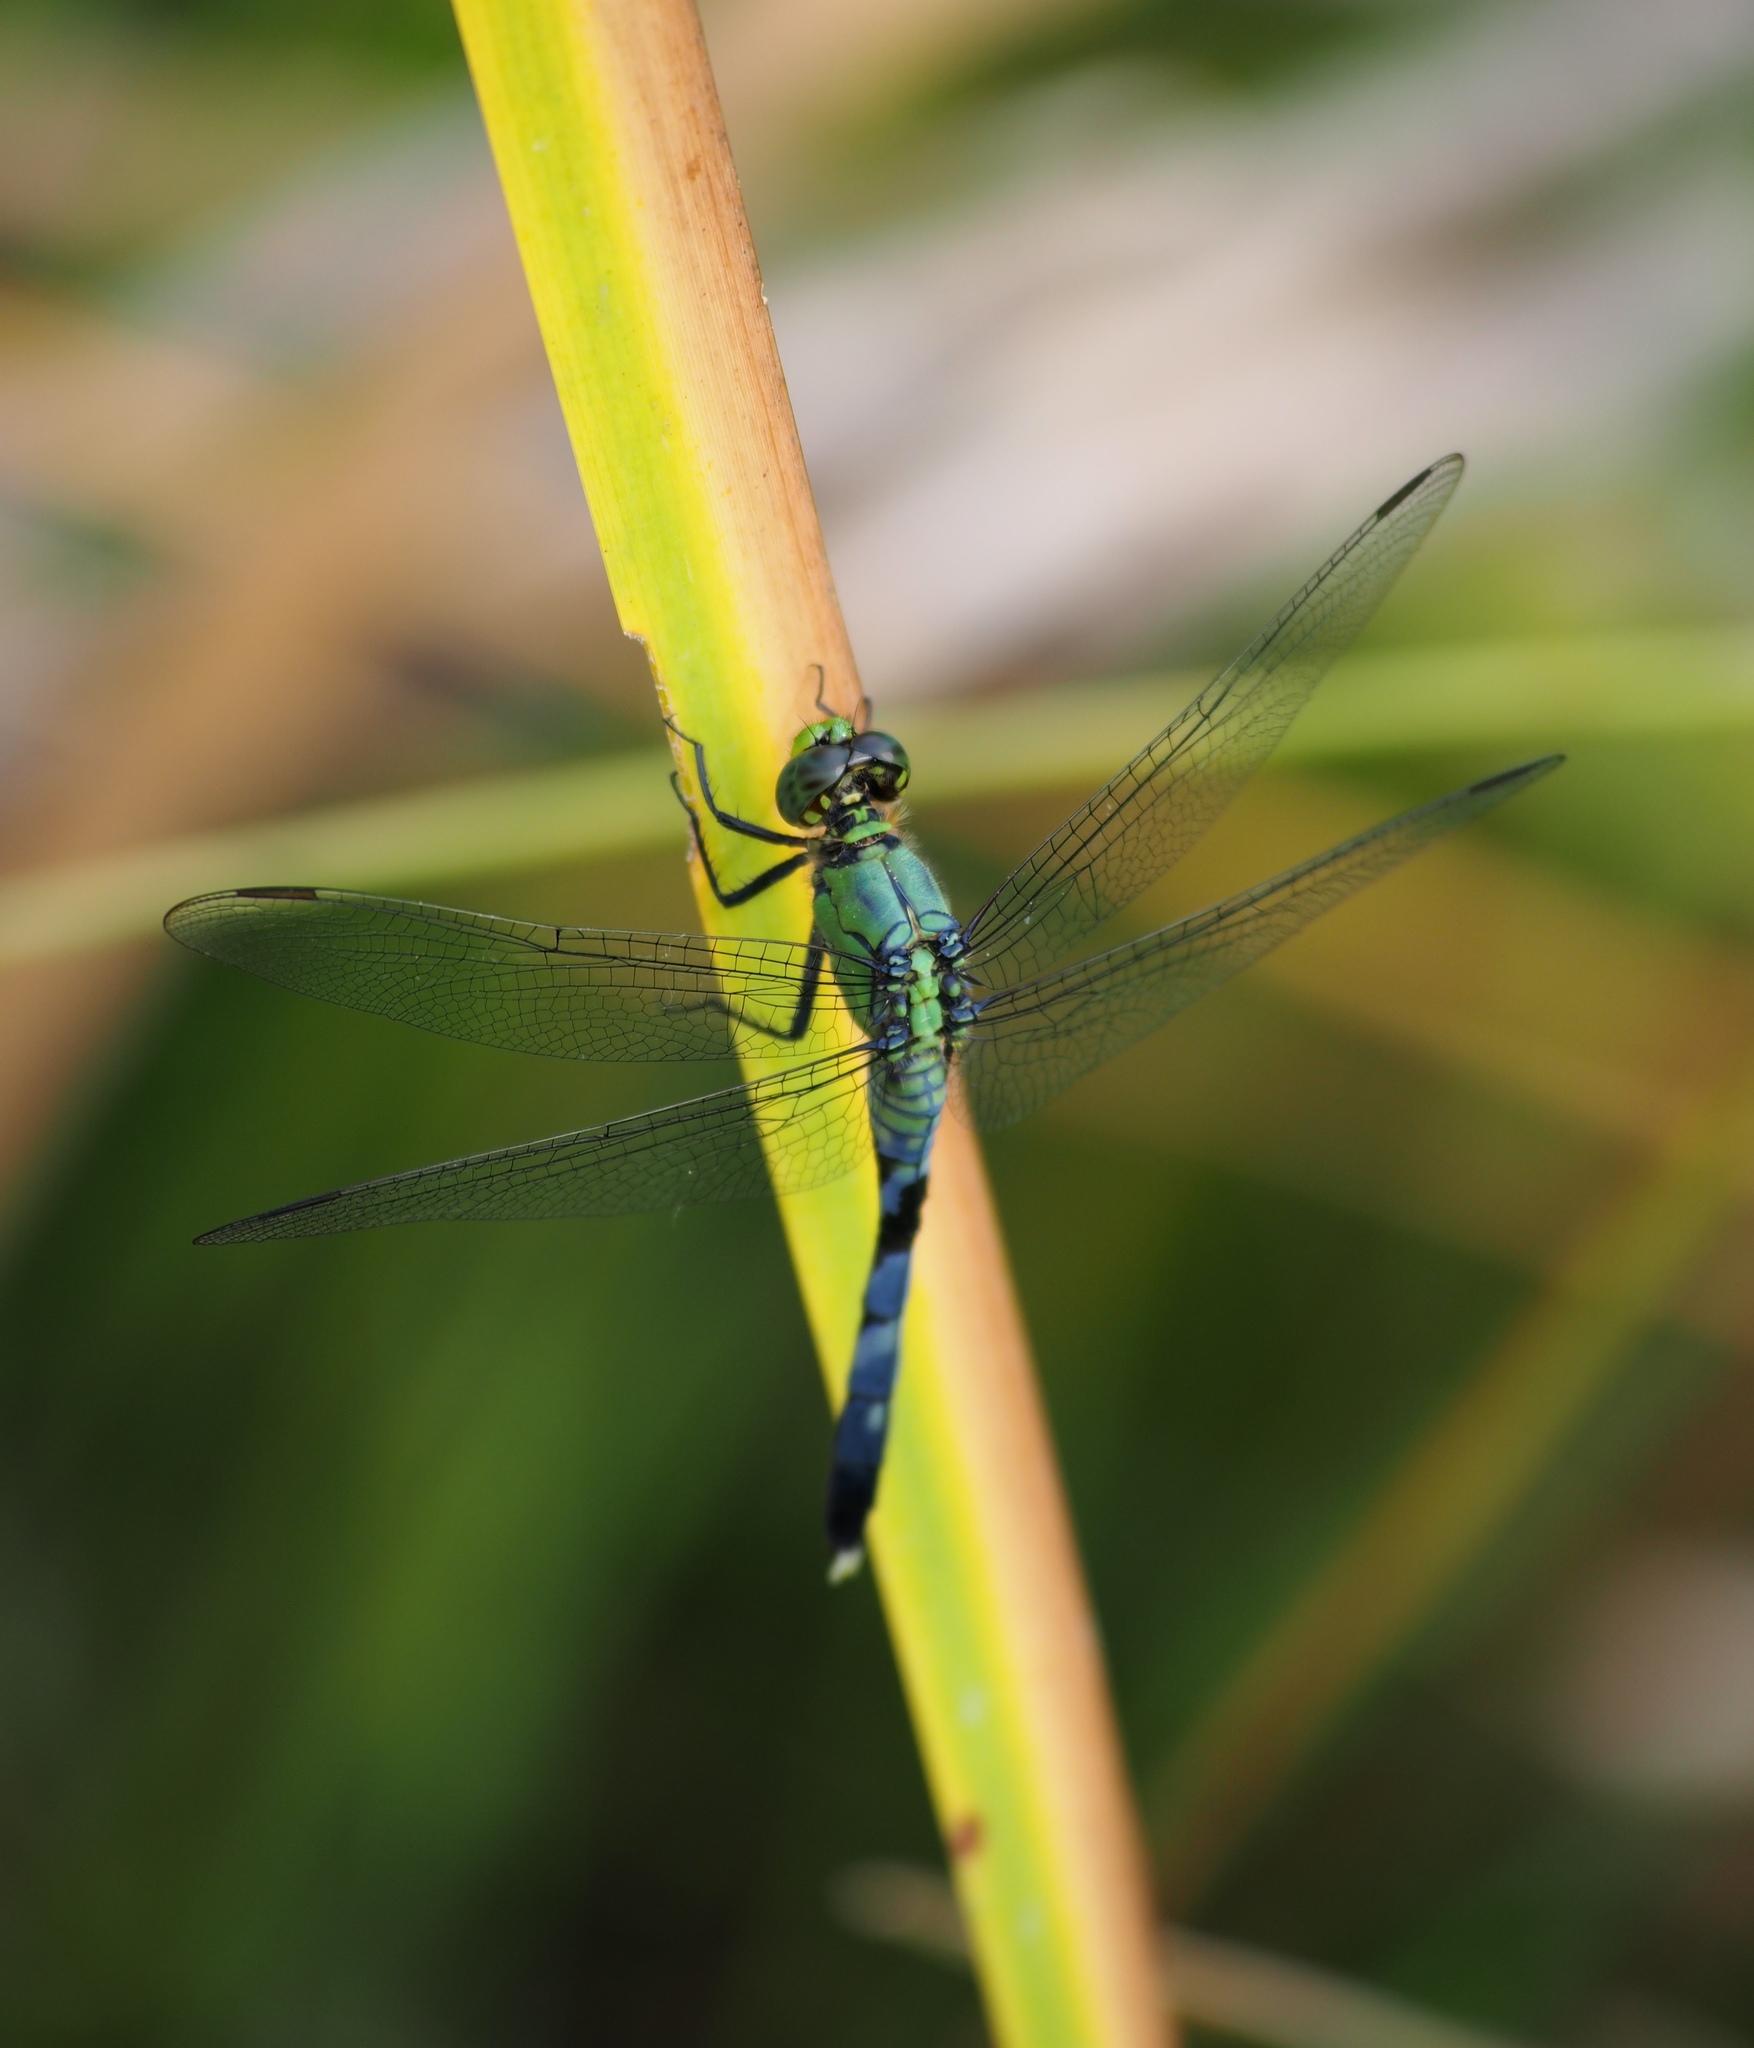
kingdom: Animalia
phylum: Arthropoda
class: Insecta
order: Odonata
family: Libellulidae
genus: Erythemis
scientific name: Erythemis simplicicollis
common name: Eastern pondhawk
